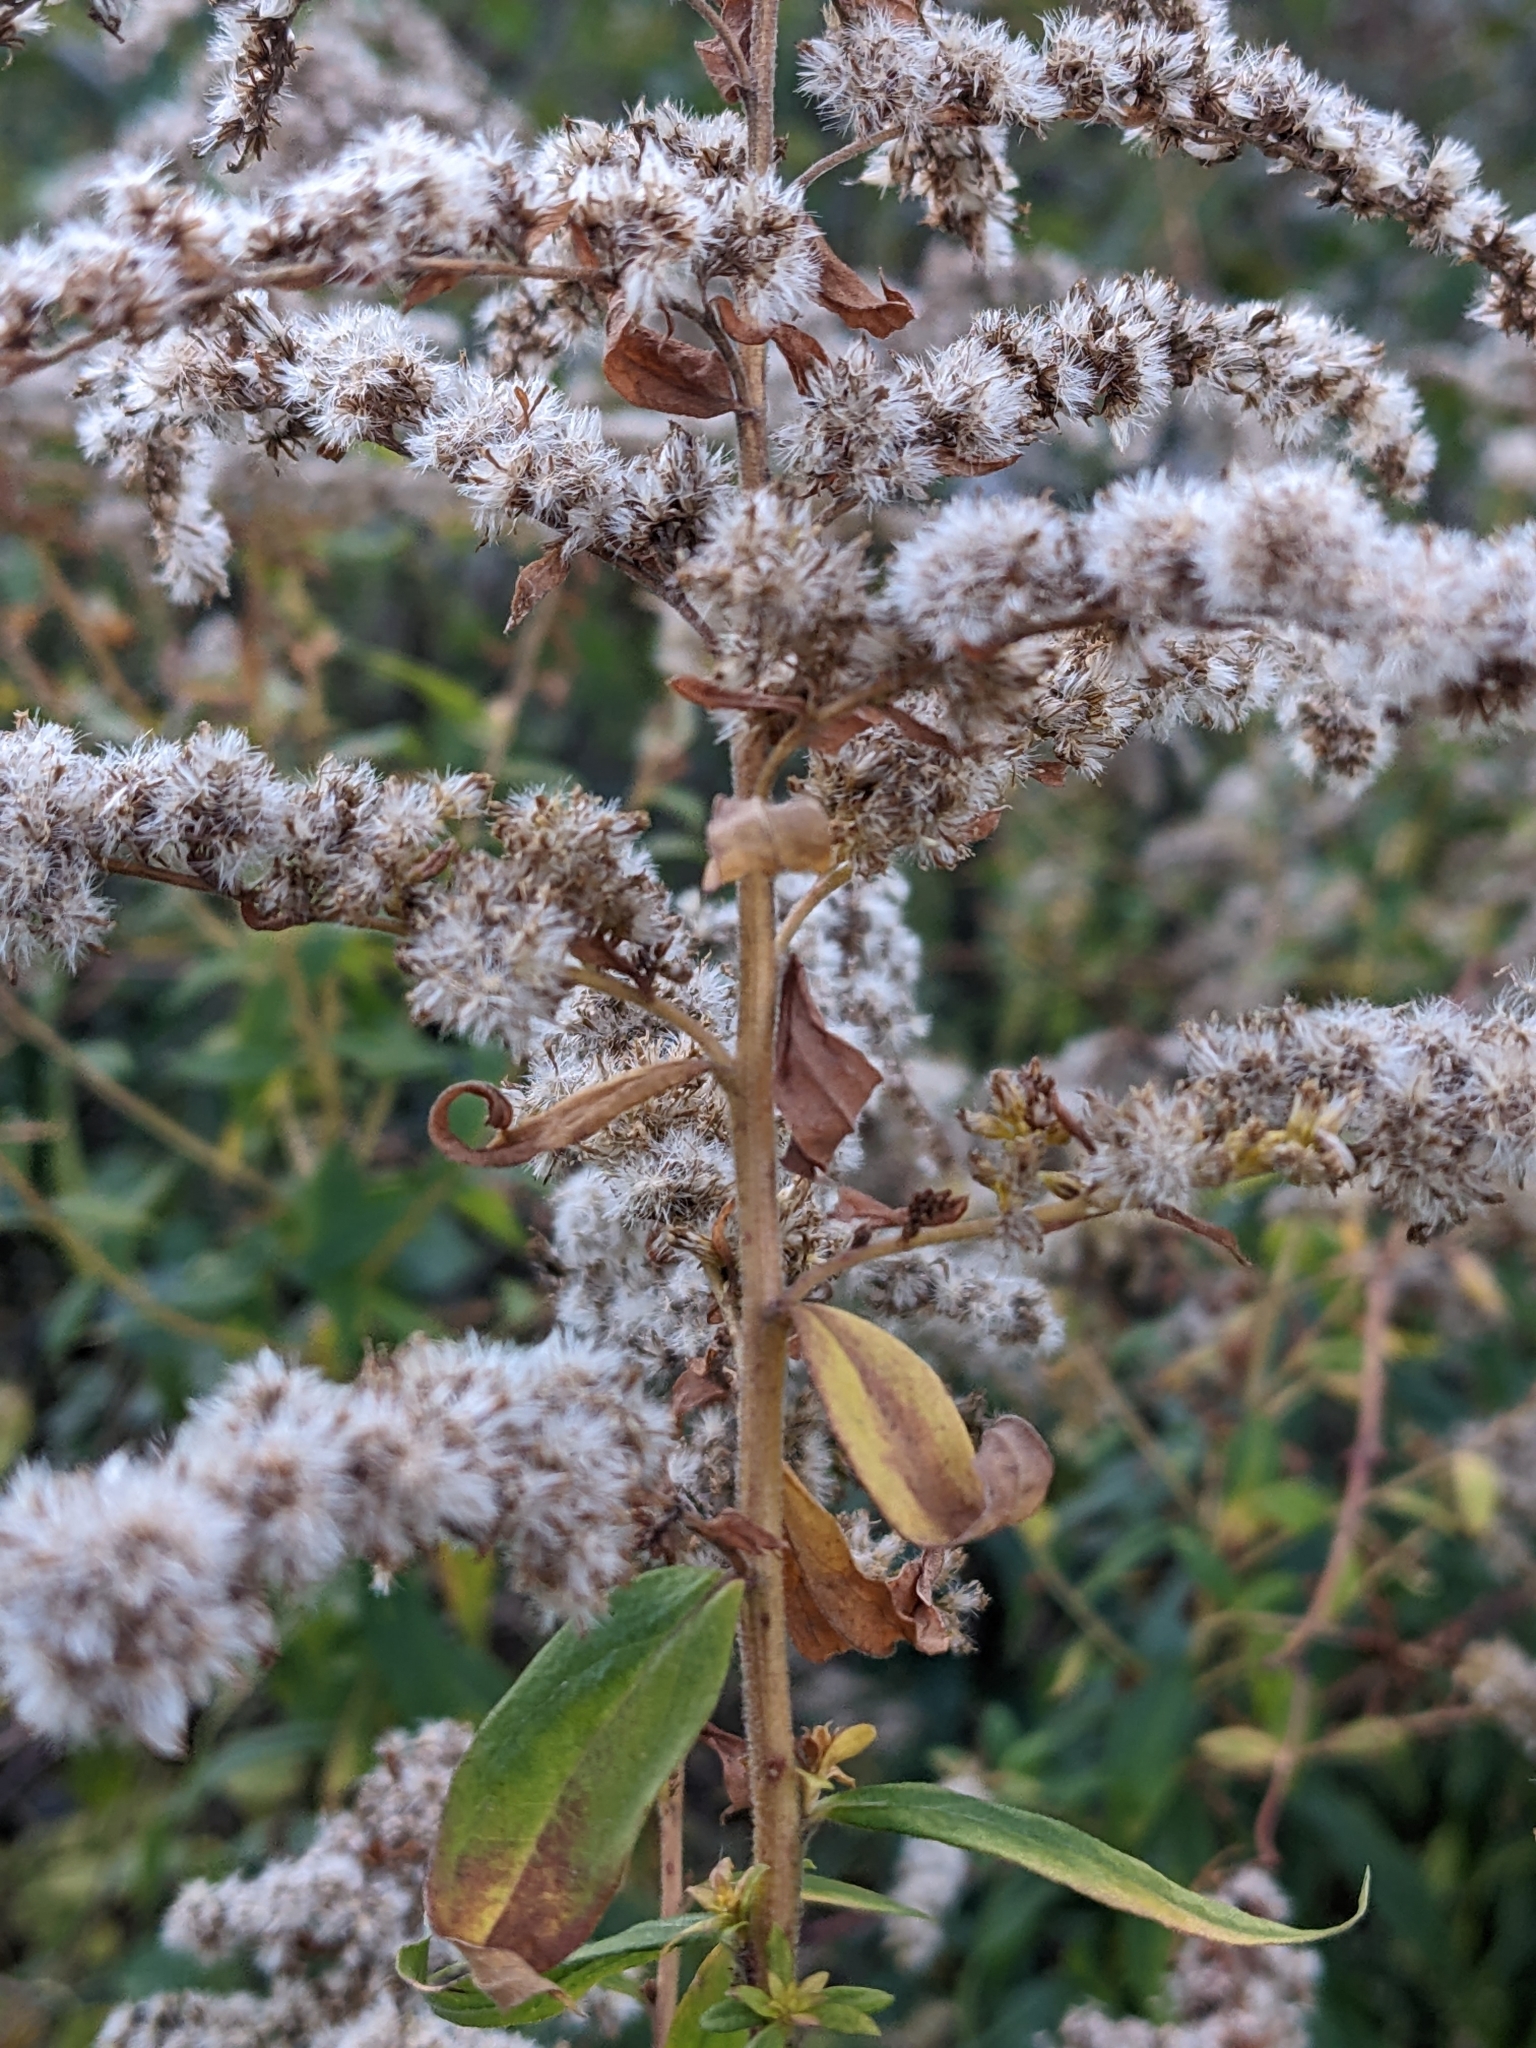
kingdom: Plantae
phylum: Tracheophyta
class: Magnoliopsida
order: Asterales
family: Asteraceae
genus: Solidago
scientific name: Solidago canadensis
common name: Canada goldenrod
